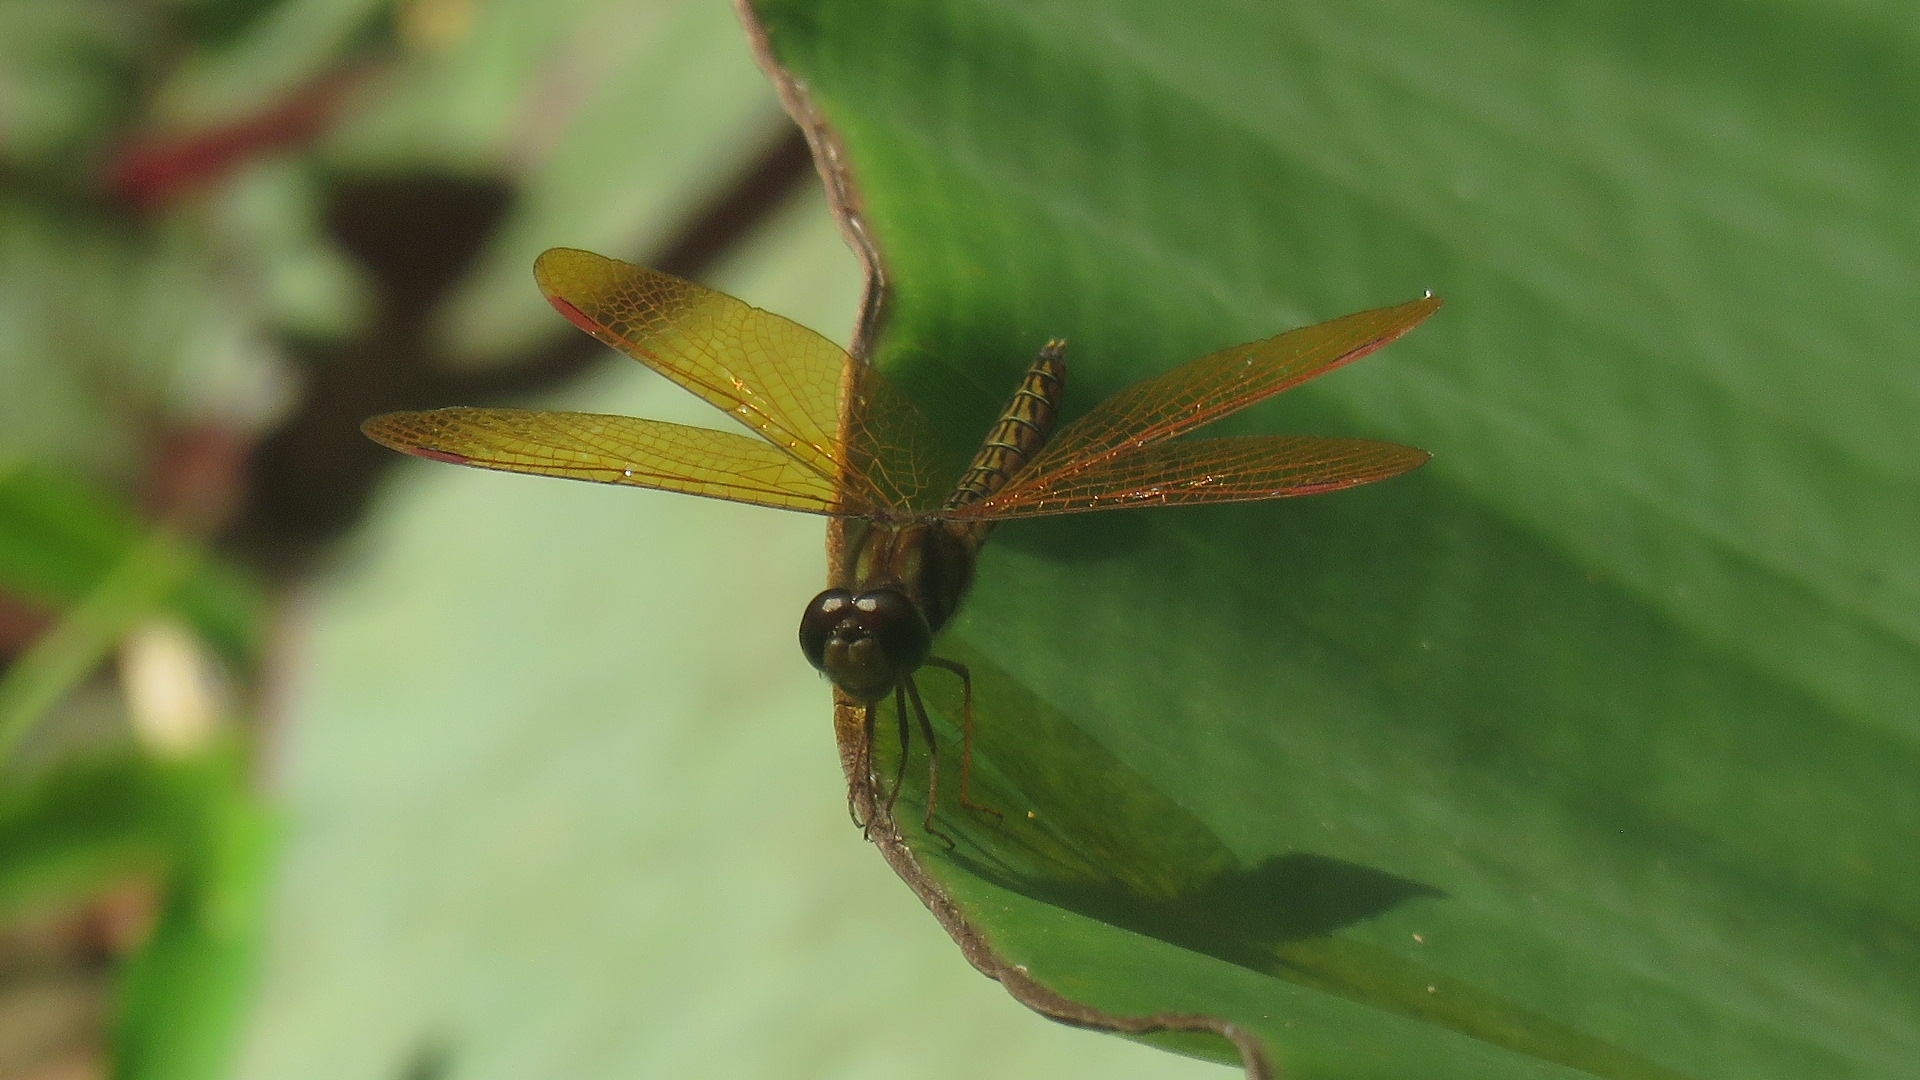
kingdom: Animalia
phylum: Arthropoda
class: Insecta
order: Odonata
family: Libellulidae
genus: Perithemis
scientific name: Perithemis tenera
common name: Eastern amberwing
